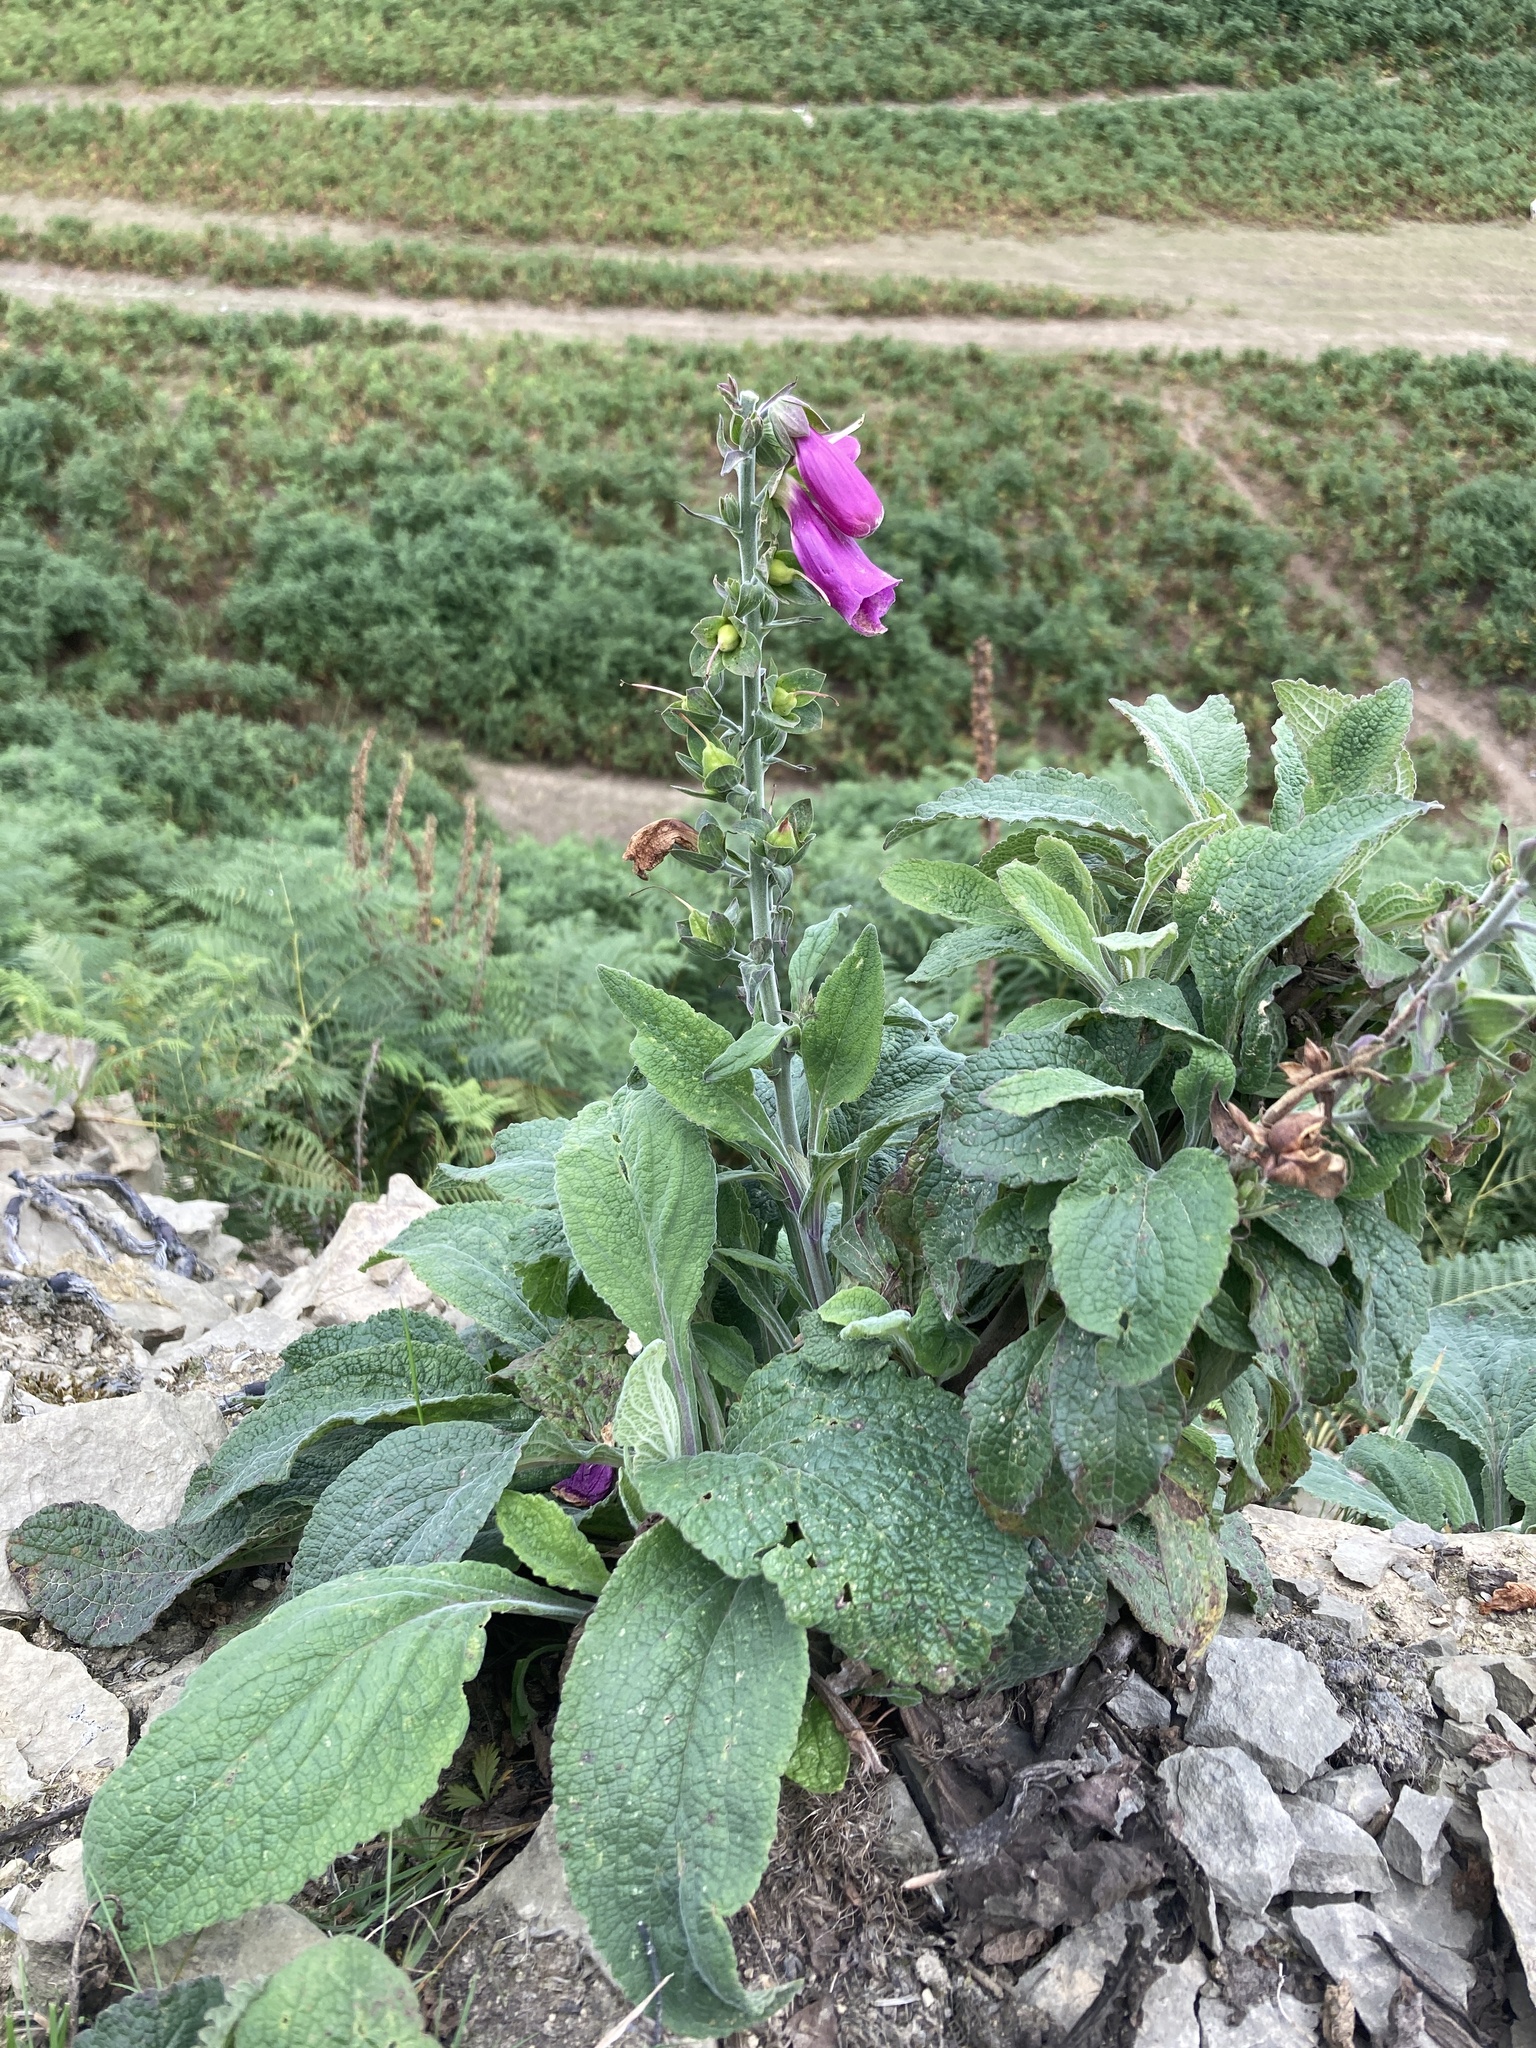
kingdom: Plantae
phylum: Tracheophyta
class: Magnoliopsida
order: Lamiales
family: Plantaginaceae
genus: Digitalis
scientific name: Digitalis purpurea
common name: Foxglove
